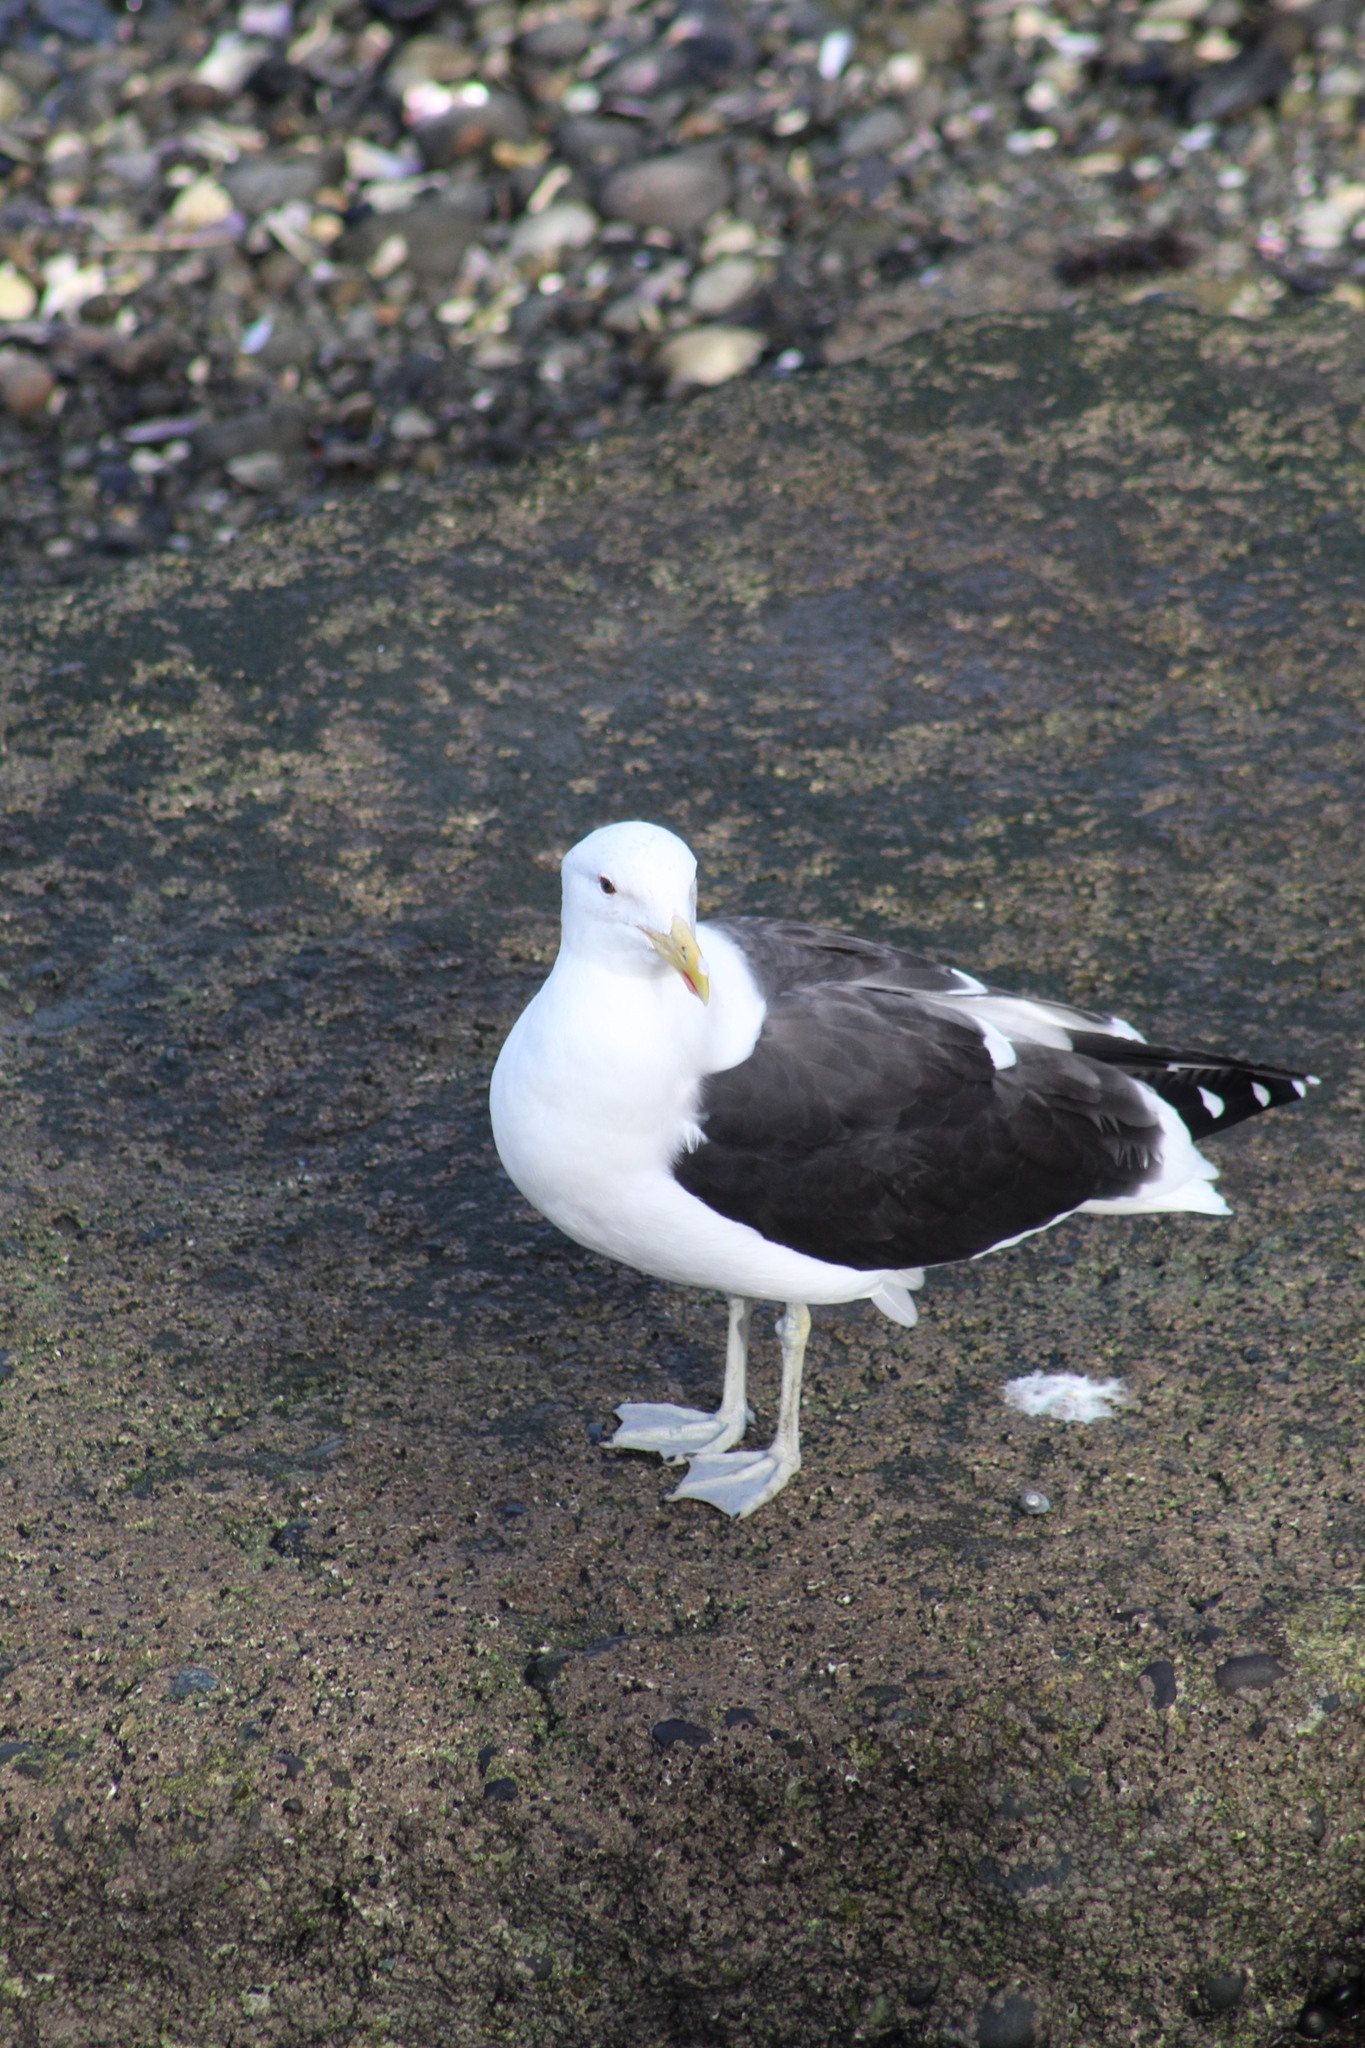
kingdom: Animalia
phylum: Chordata
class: Aves
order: Charadriiformes
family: Laridae
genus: Larus
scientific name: Larus dominicanus
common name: Kelp gull
